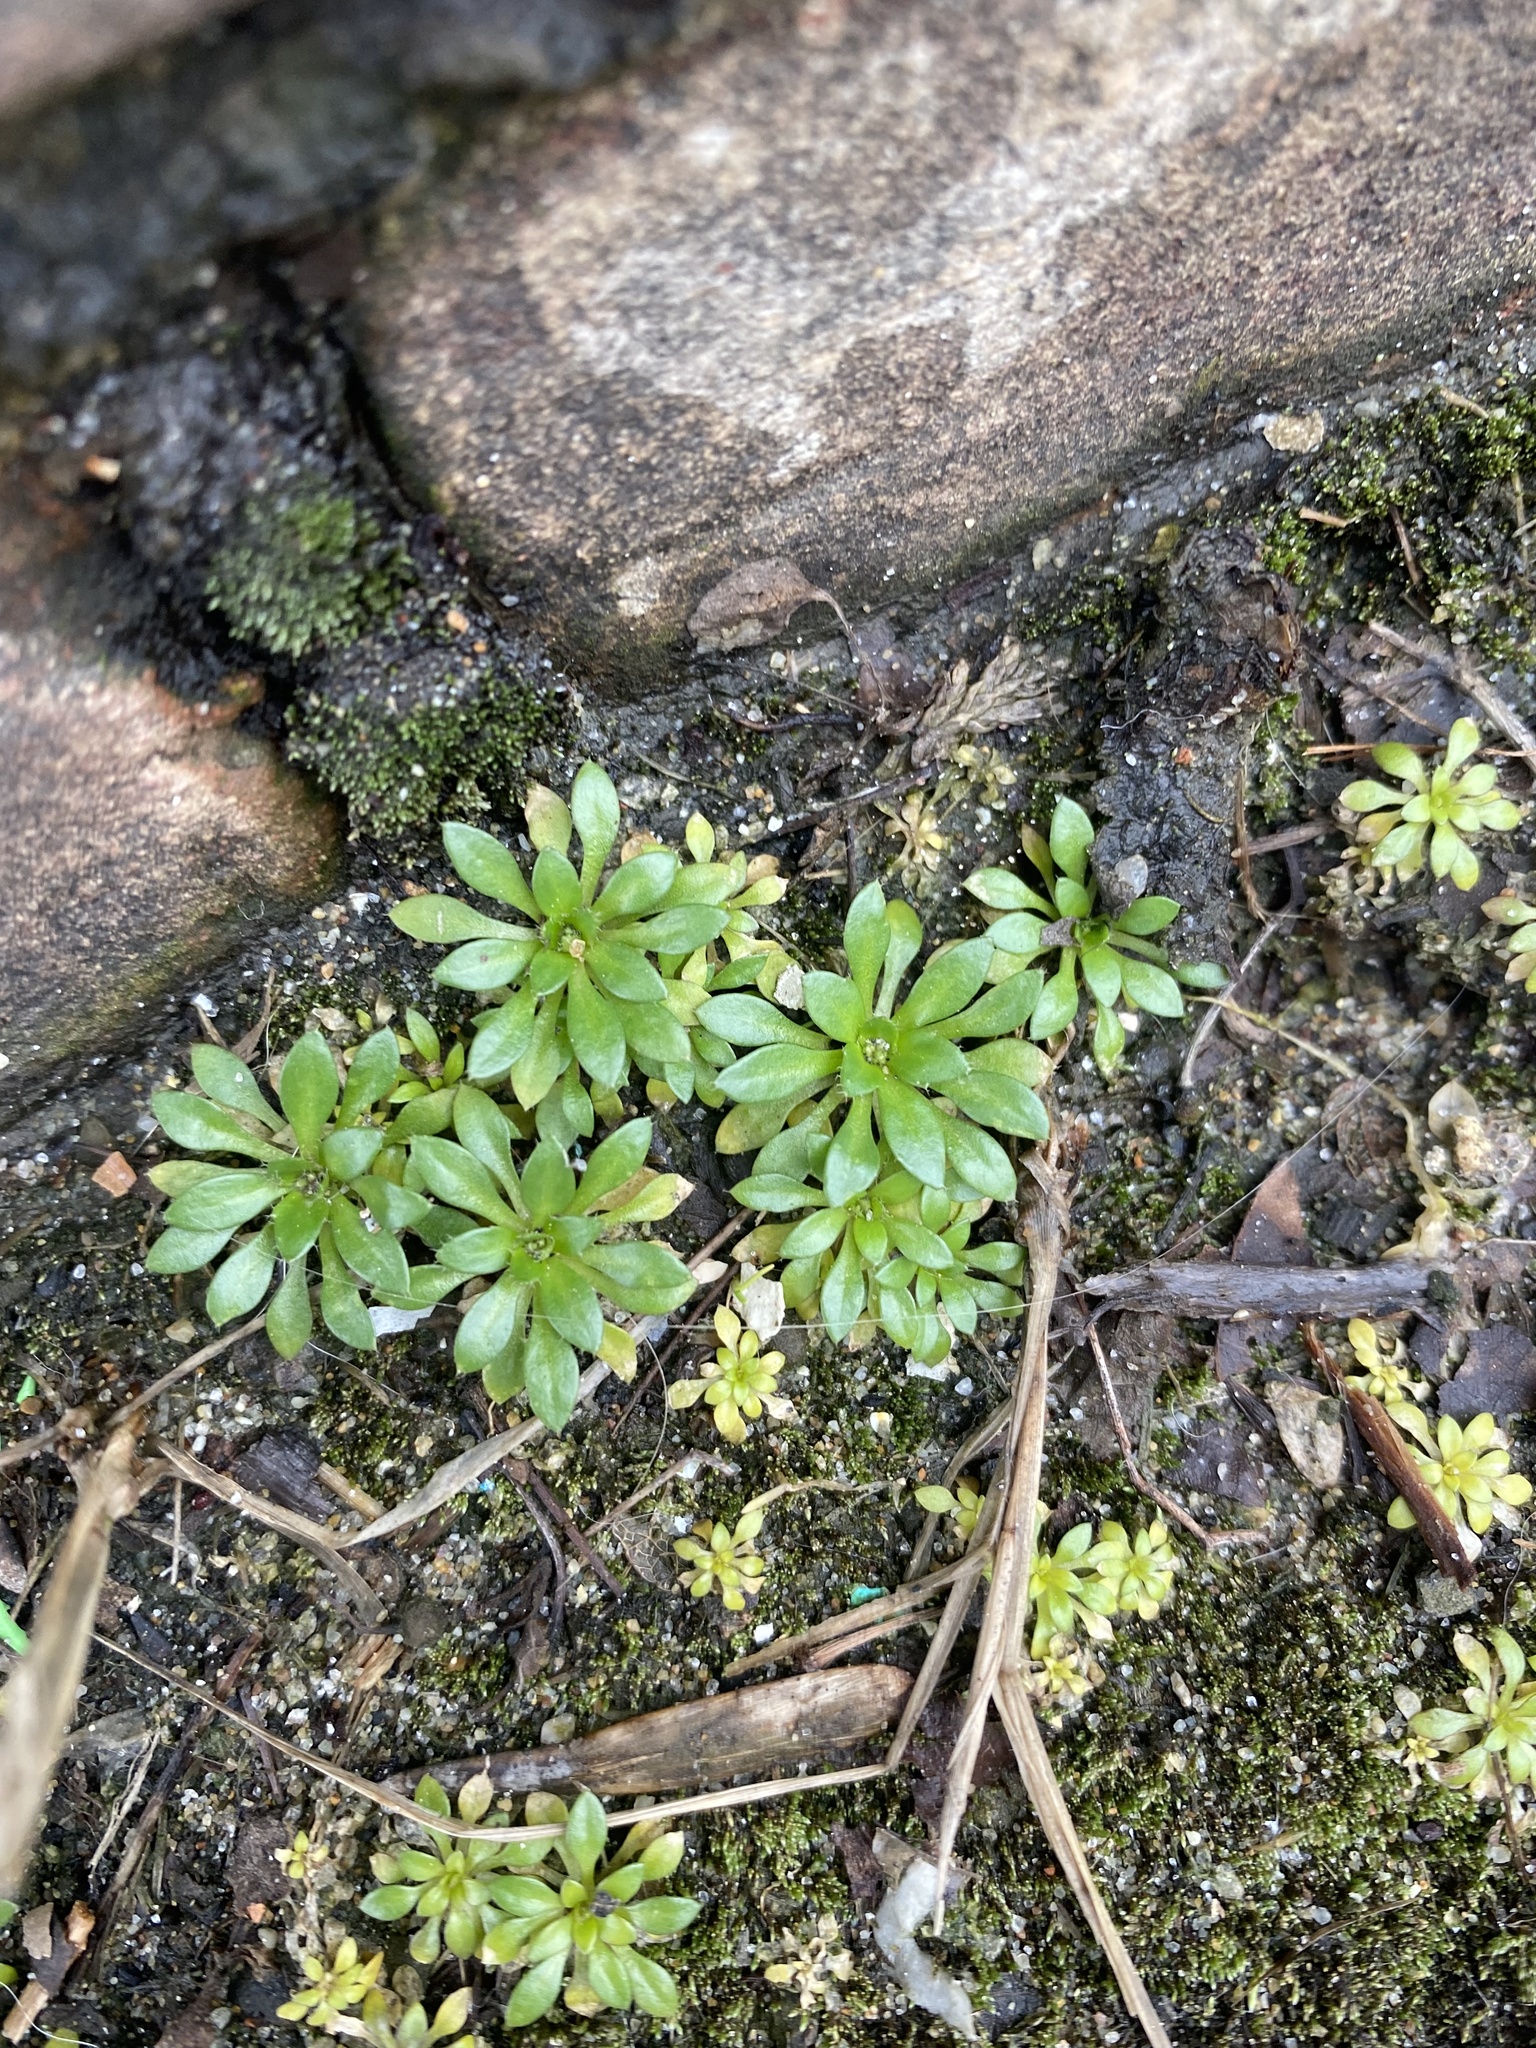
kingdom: Plantae
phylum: Tracheophyta
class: Magnoliopsida
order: Brassicales
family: Brassicaceae
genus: Draba
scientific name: Draba verna
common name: Spring draba
